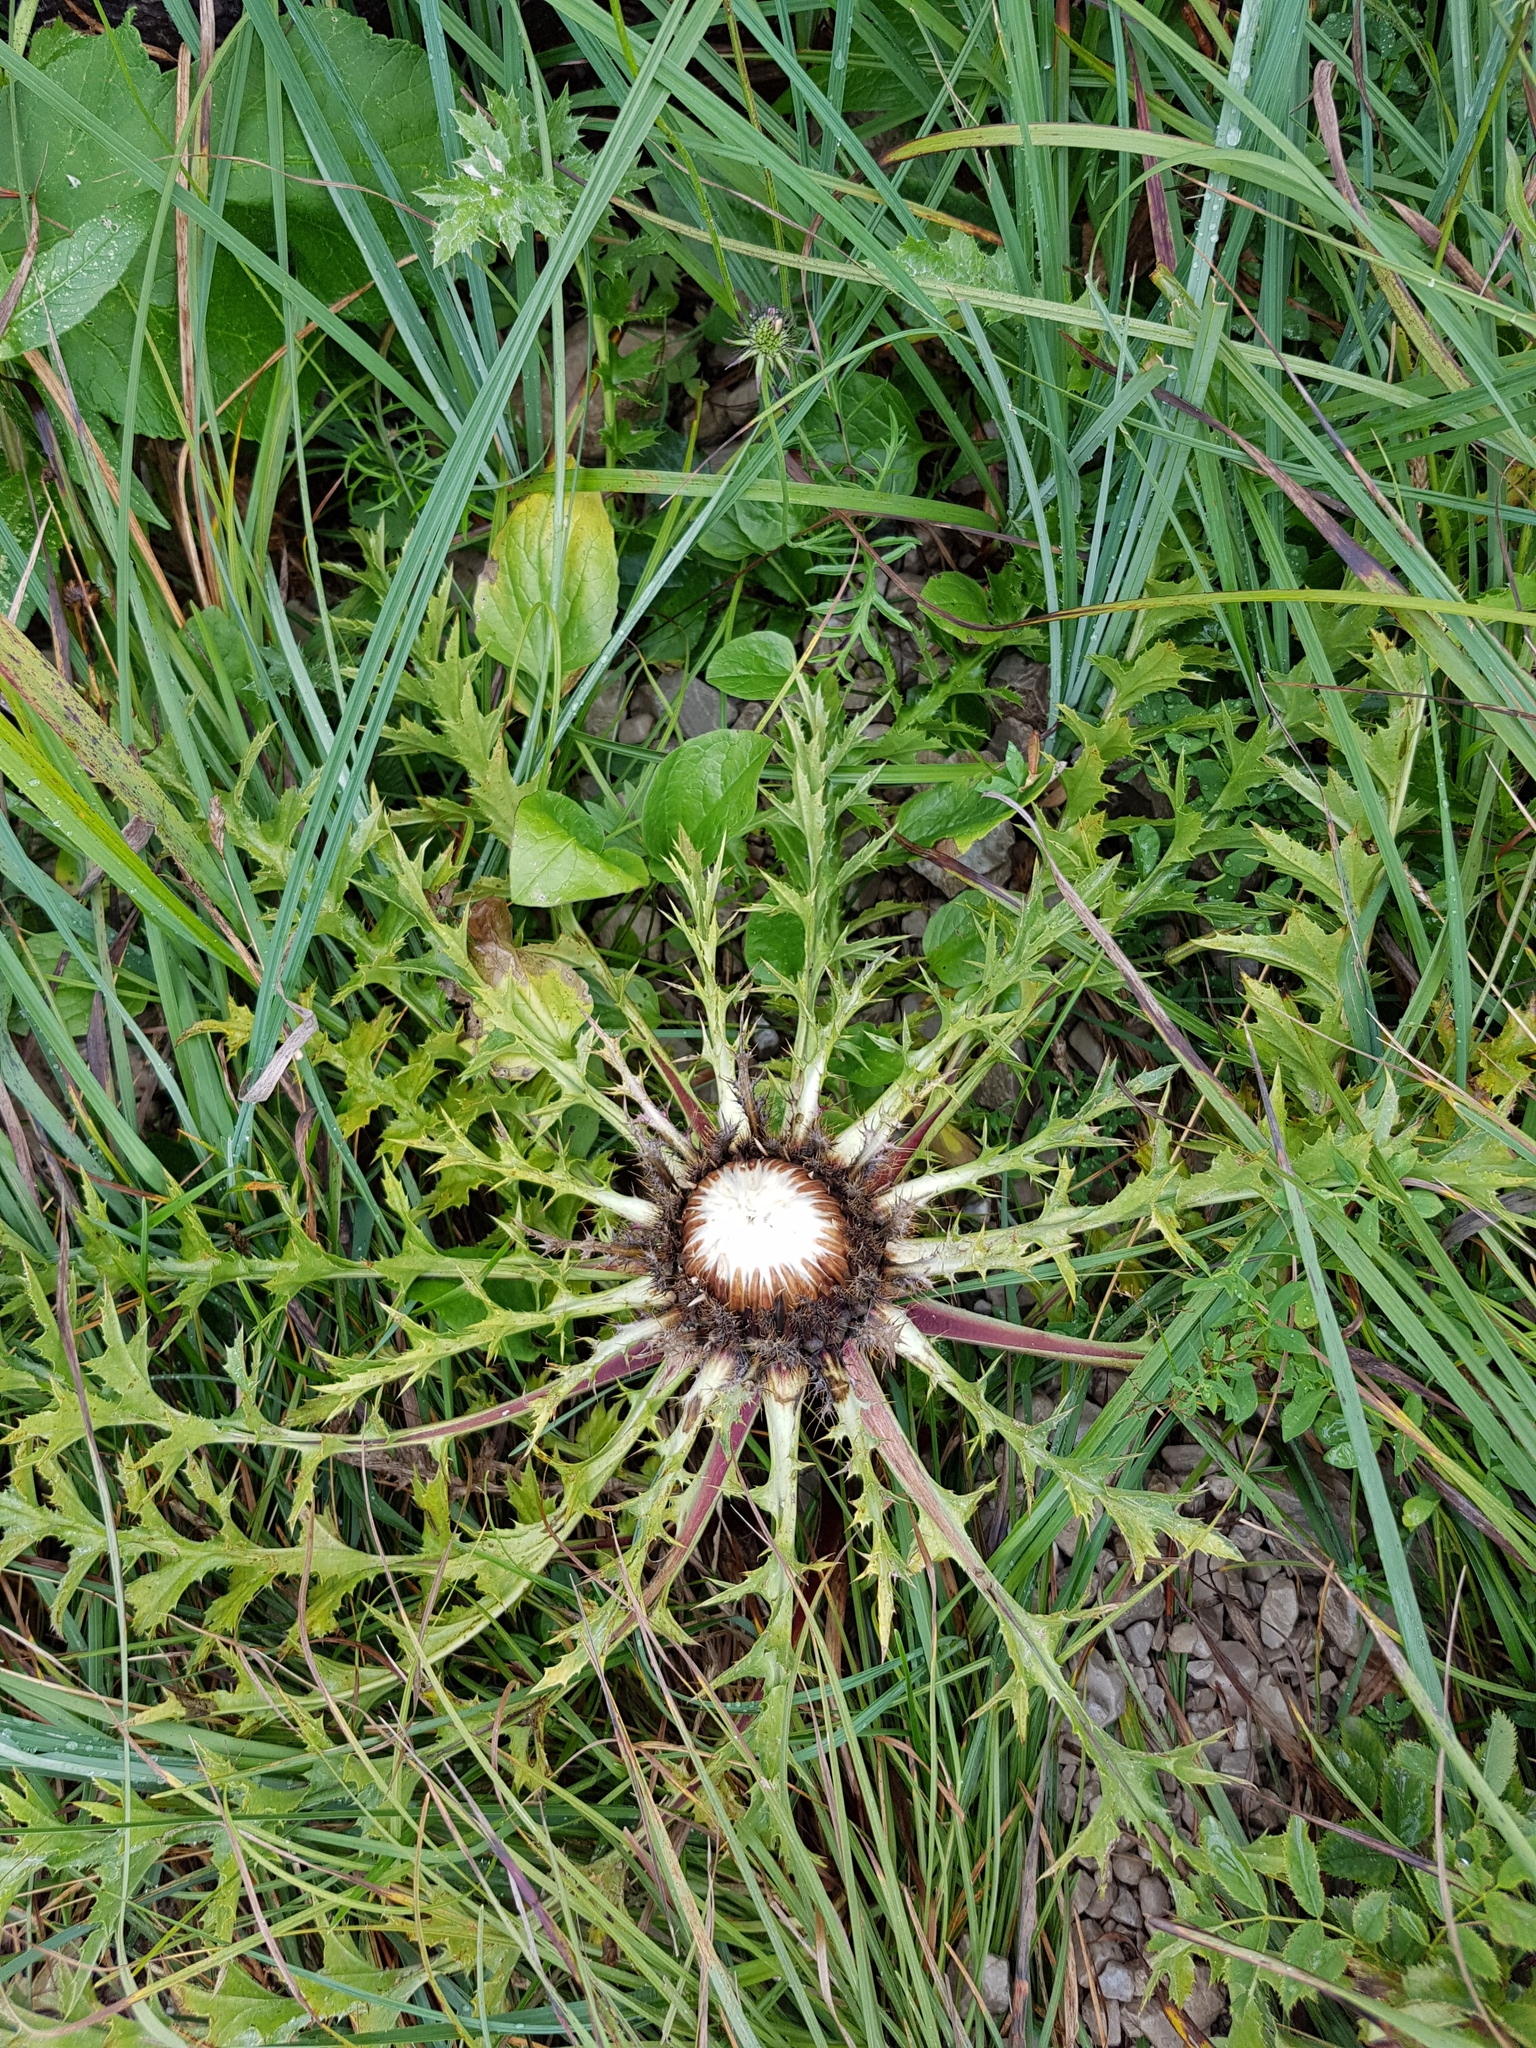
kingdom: Plantae
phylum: Tracheophyta
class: Magnoliopsida
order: Asterales
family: Asteraceae
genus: Carlina
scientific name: Carlina acaulis
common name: Stemless carline thistle
